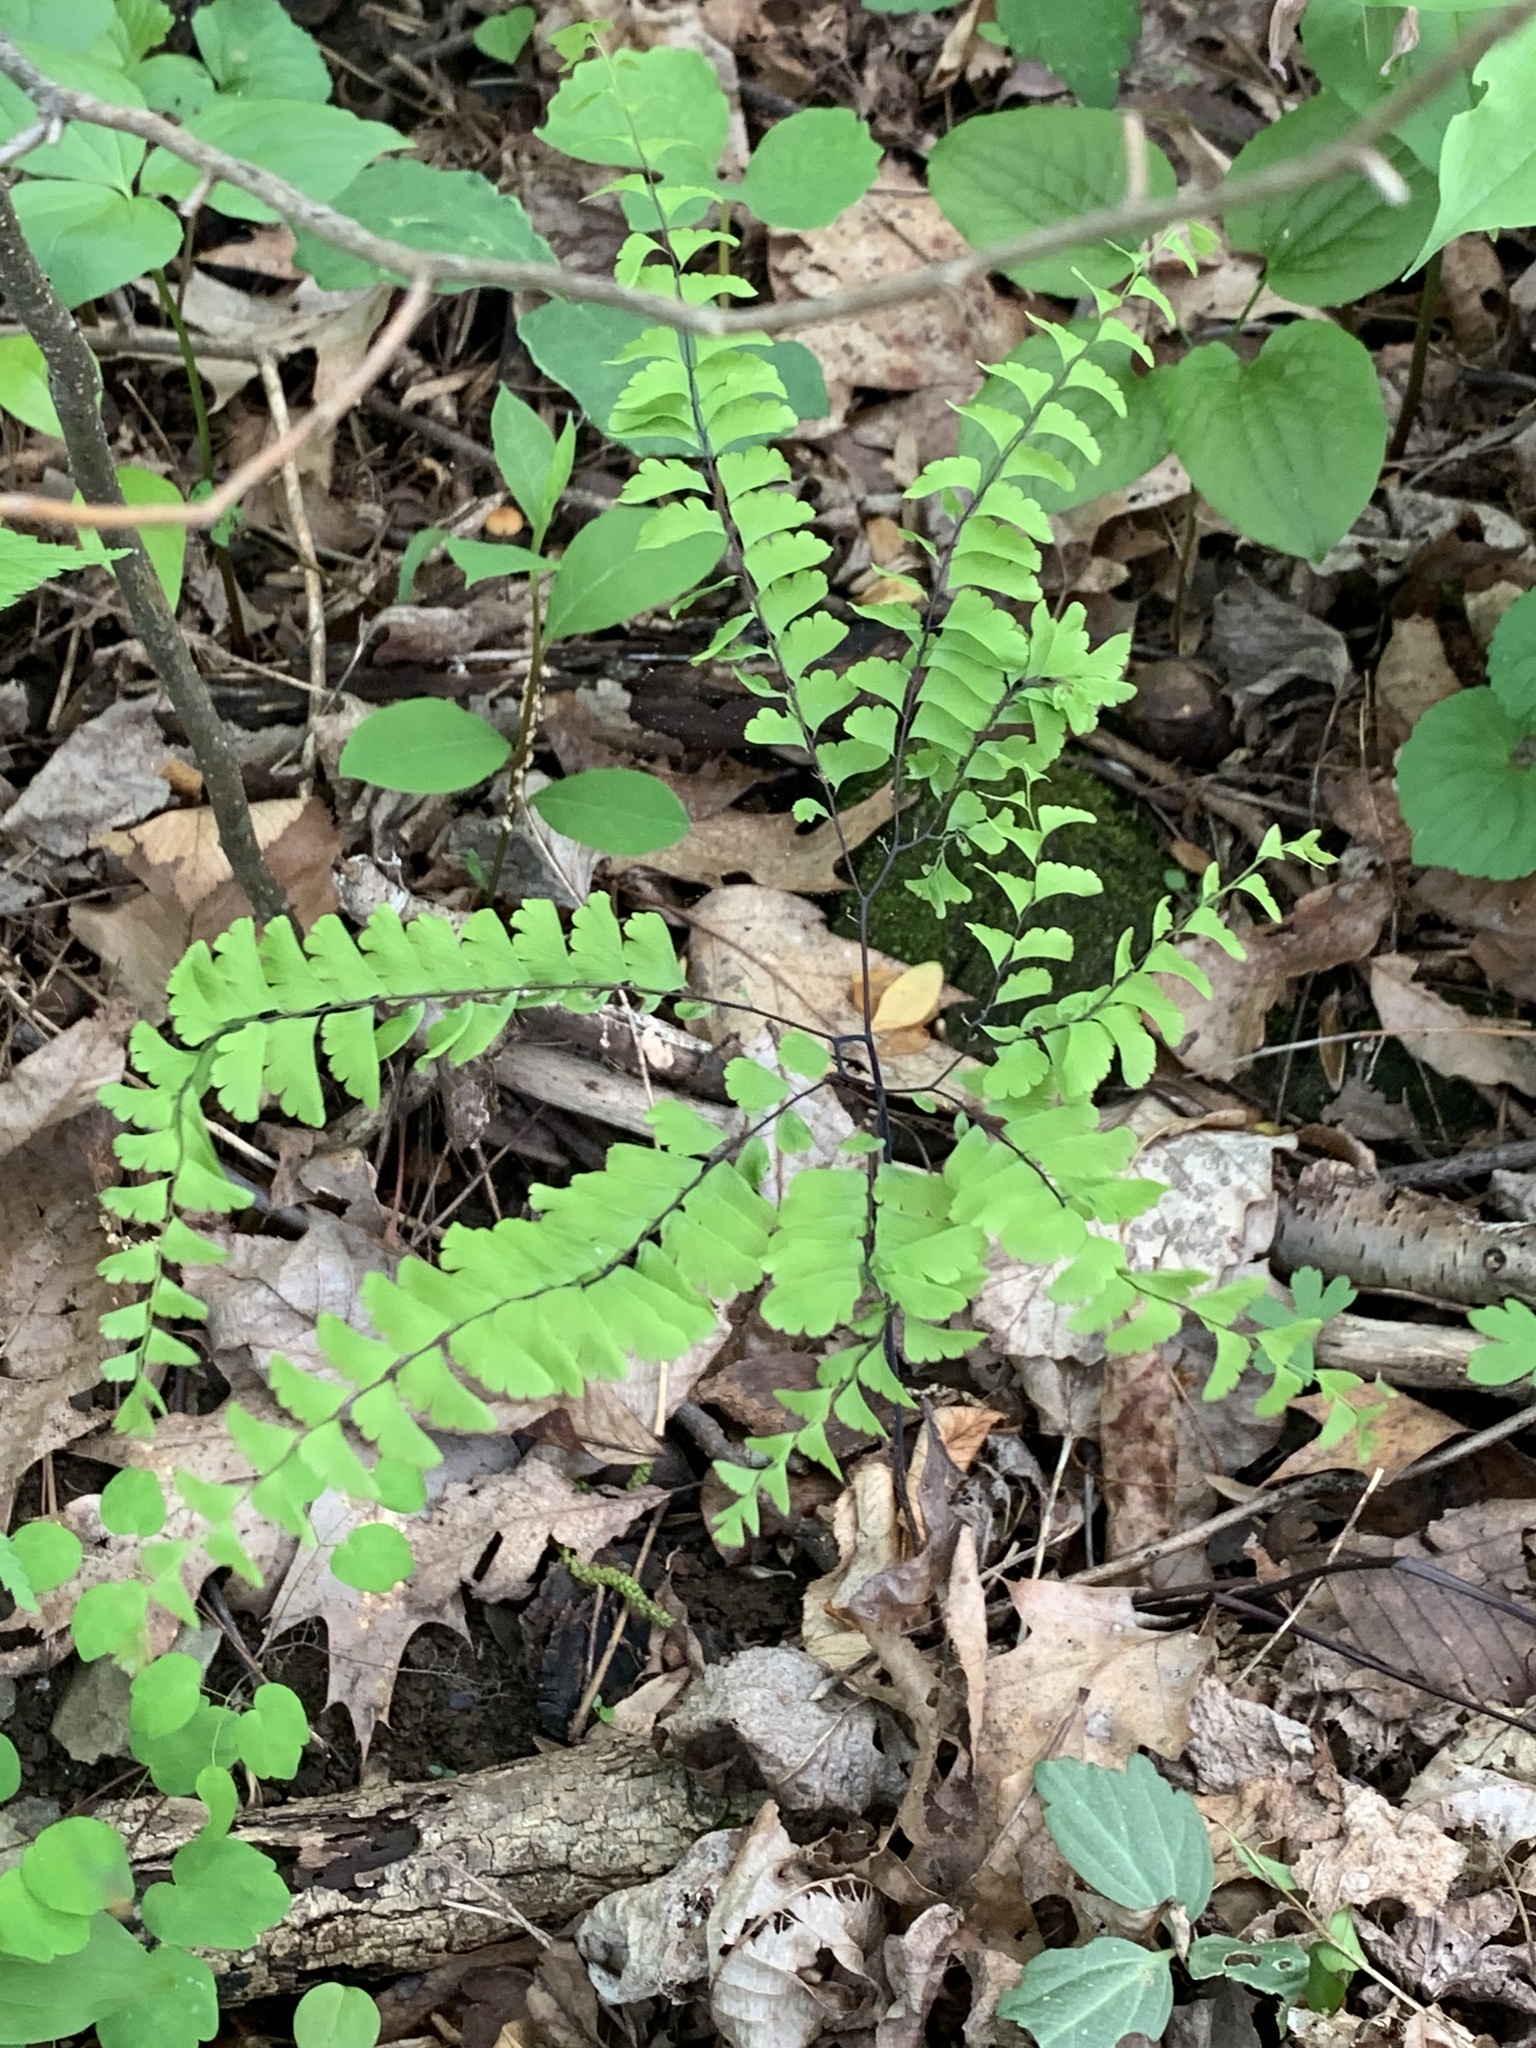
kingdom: Plantae
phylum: Tracheophyta
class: Polypodiopsida
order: Polypodiales
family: Pteridaceae
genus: Adiantum
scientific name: Adiantum pedatum
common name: Five-finger fern
